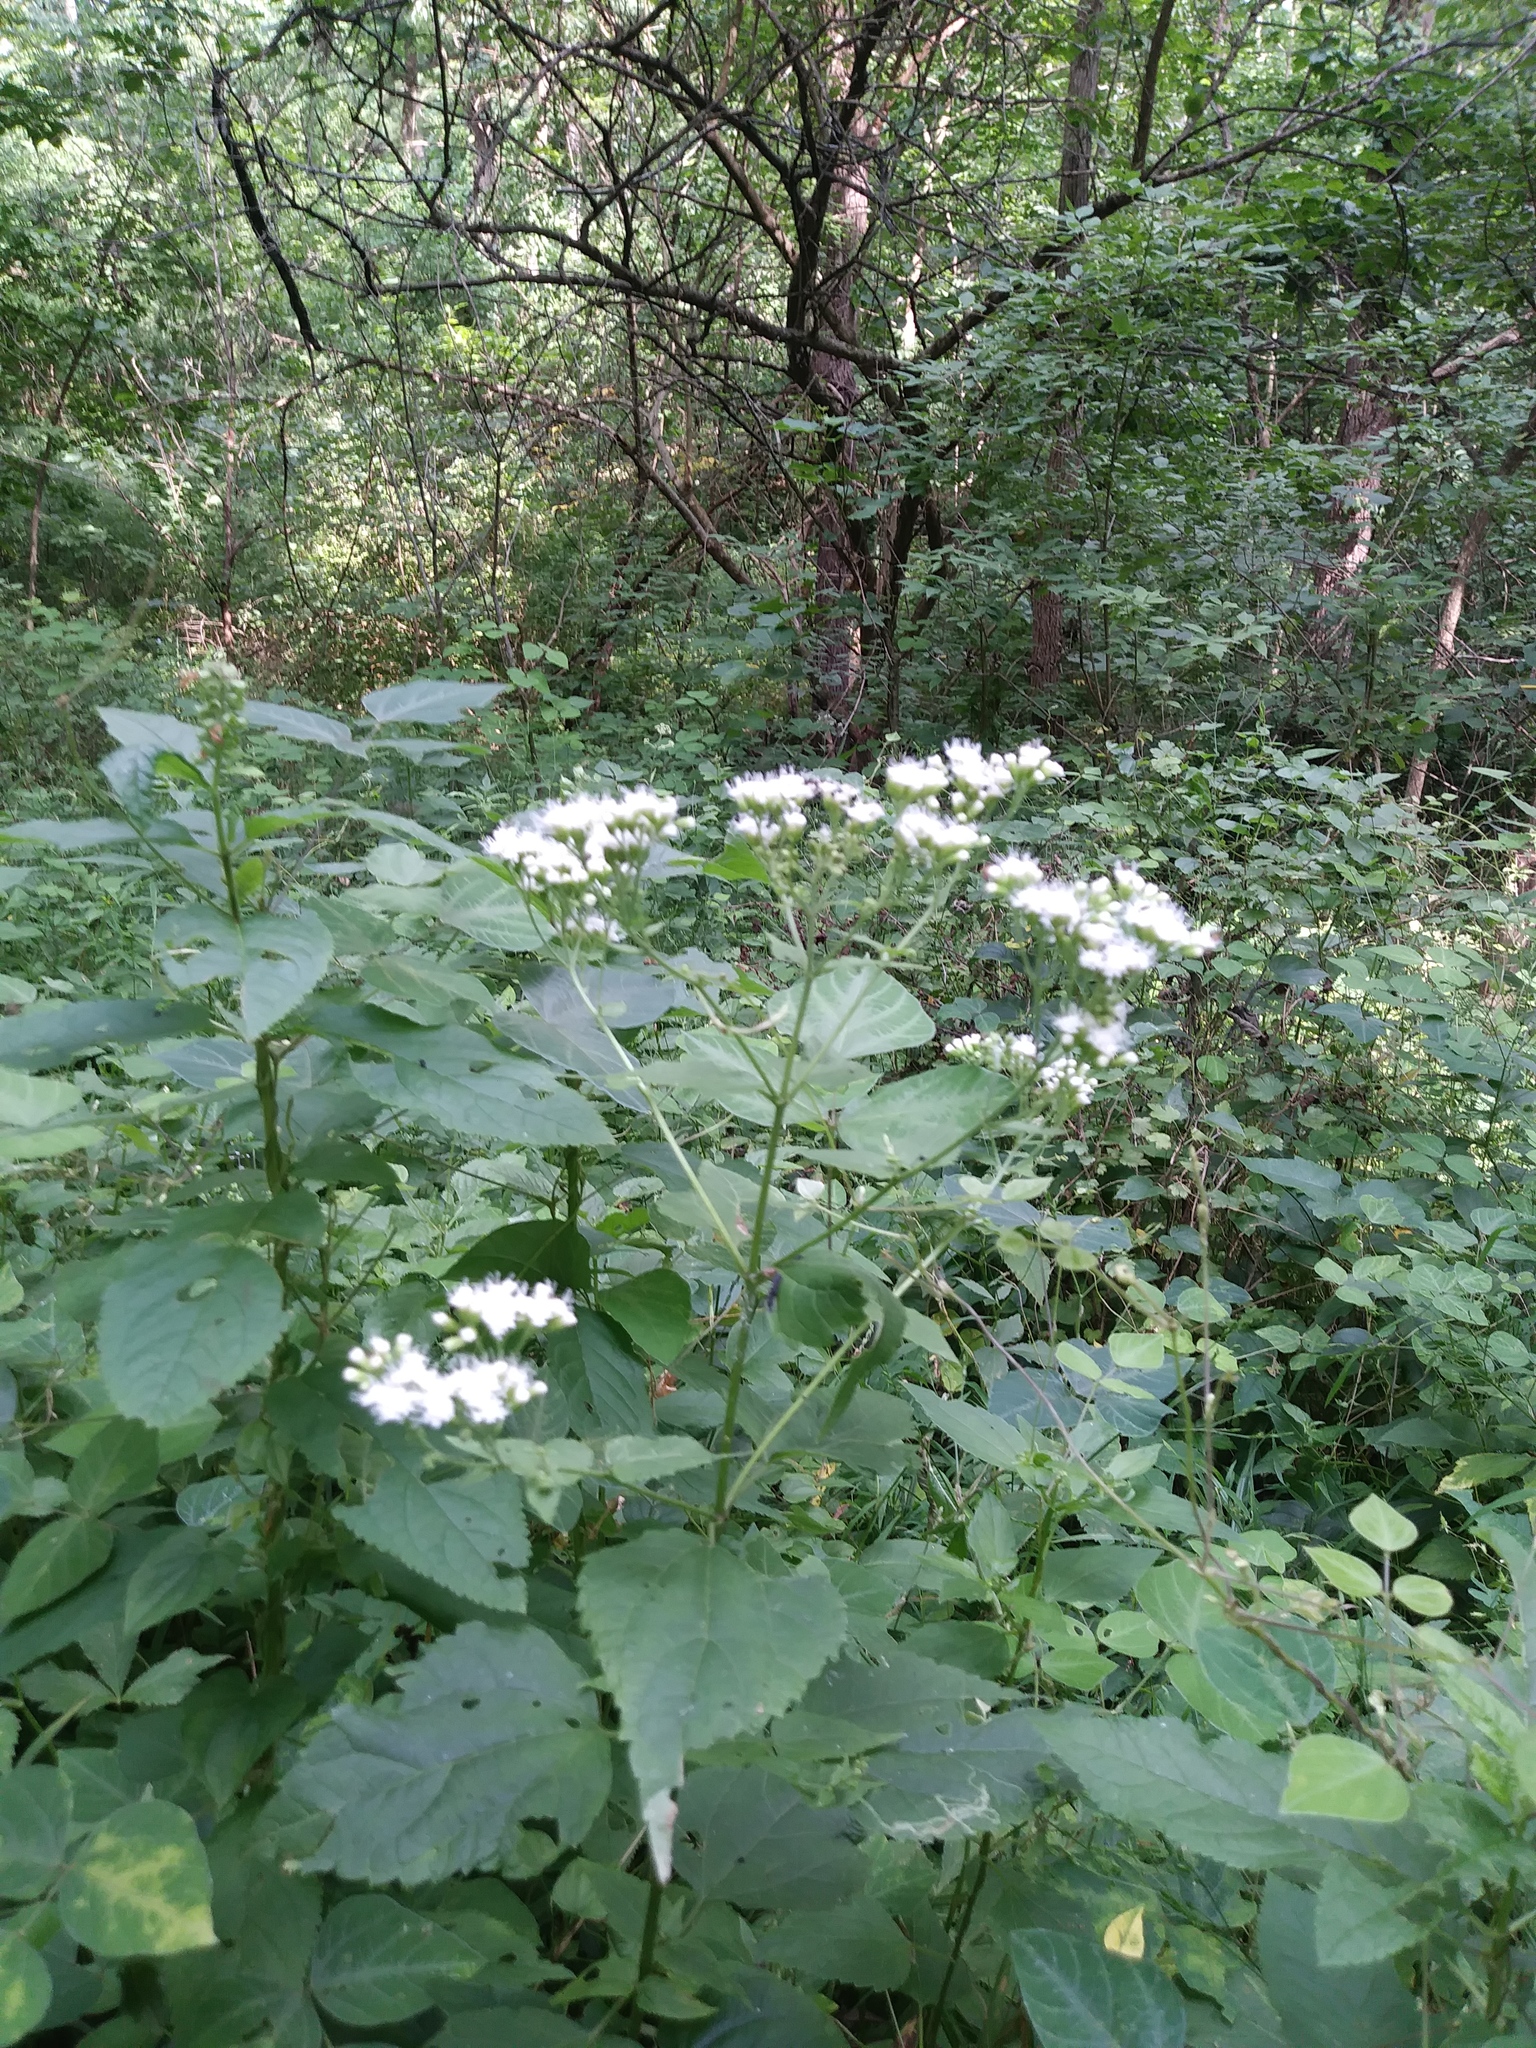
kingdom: Plantae
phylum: Tracheophyta
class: Magnoliopsida
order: Asterales
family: Asteraceae
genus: Ageratina
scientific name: Ageratina altissima
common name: White snakeroot
